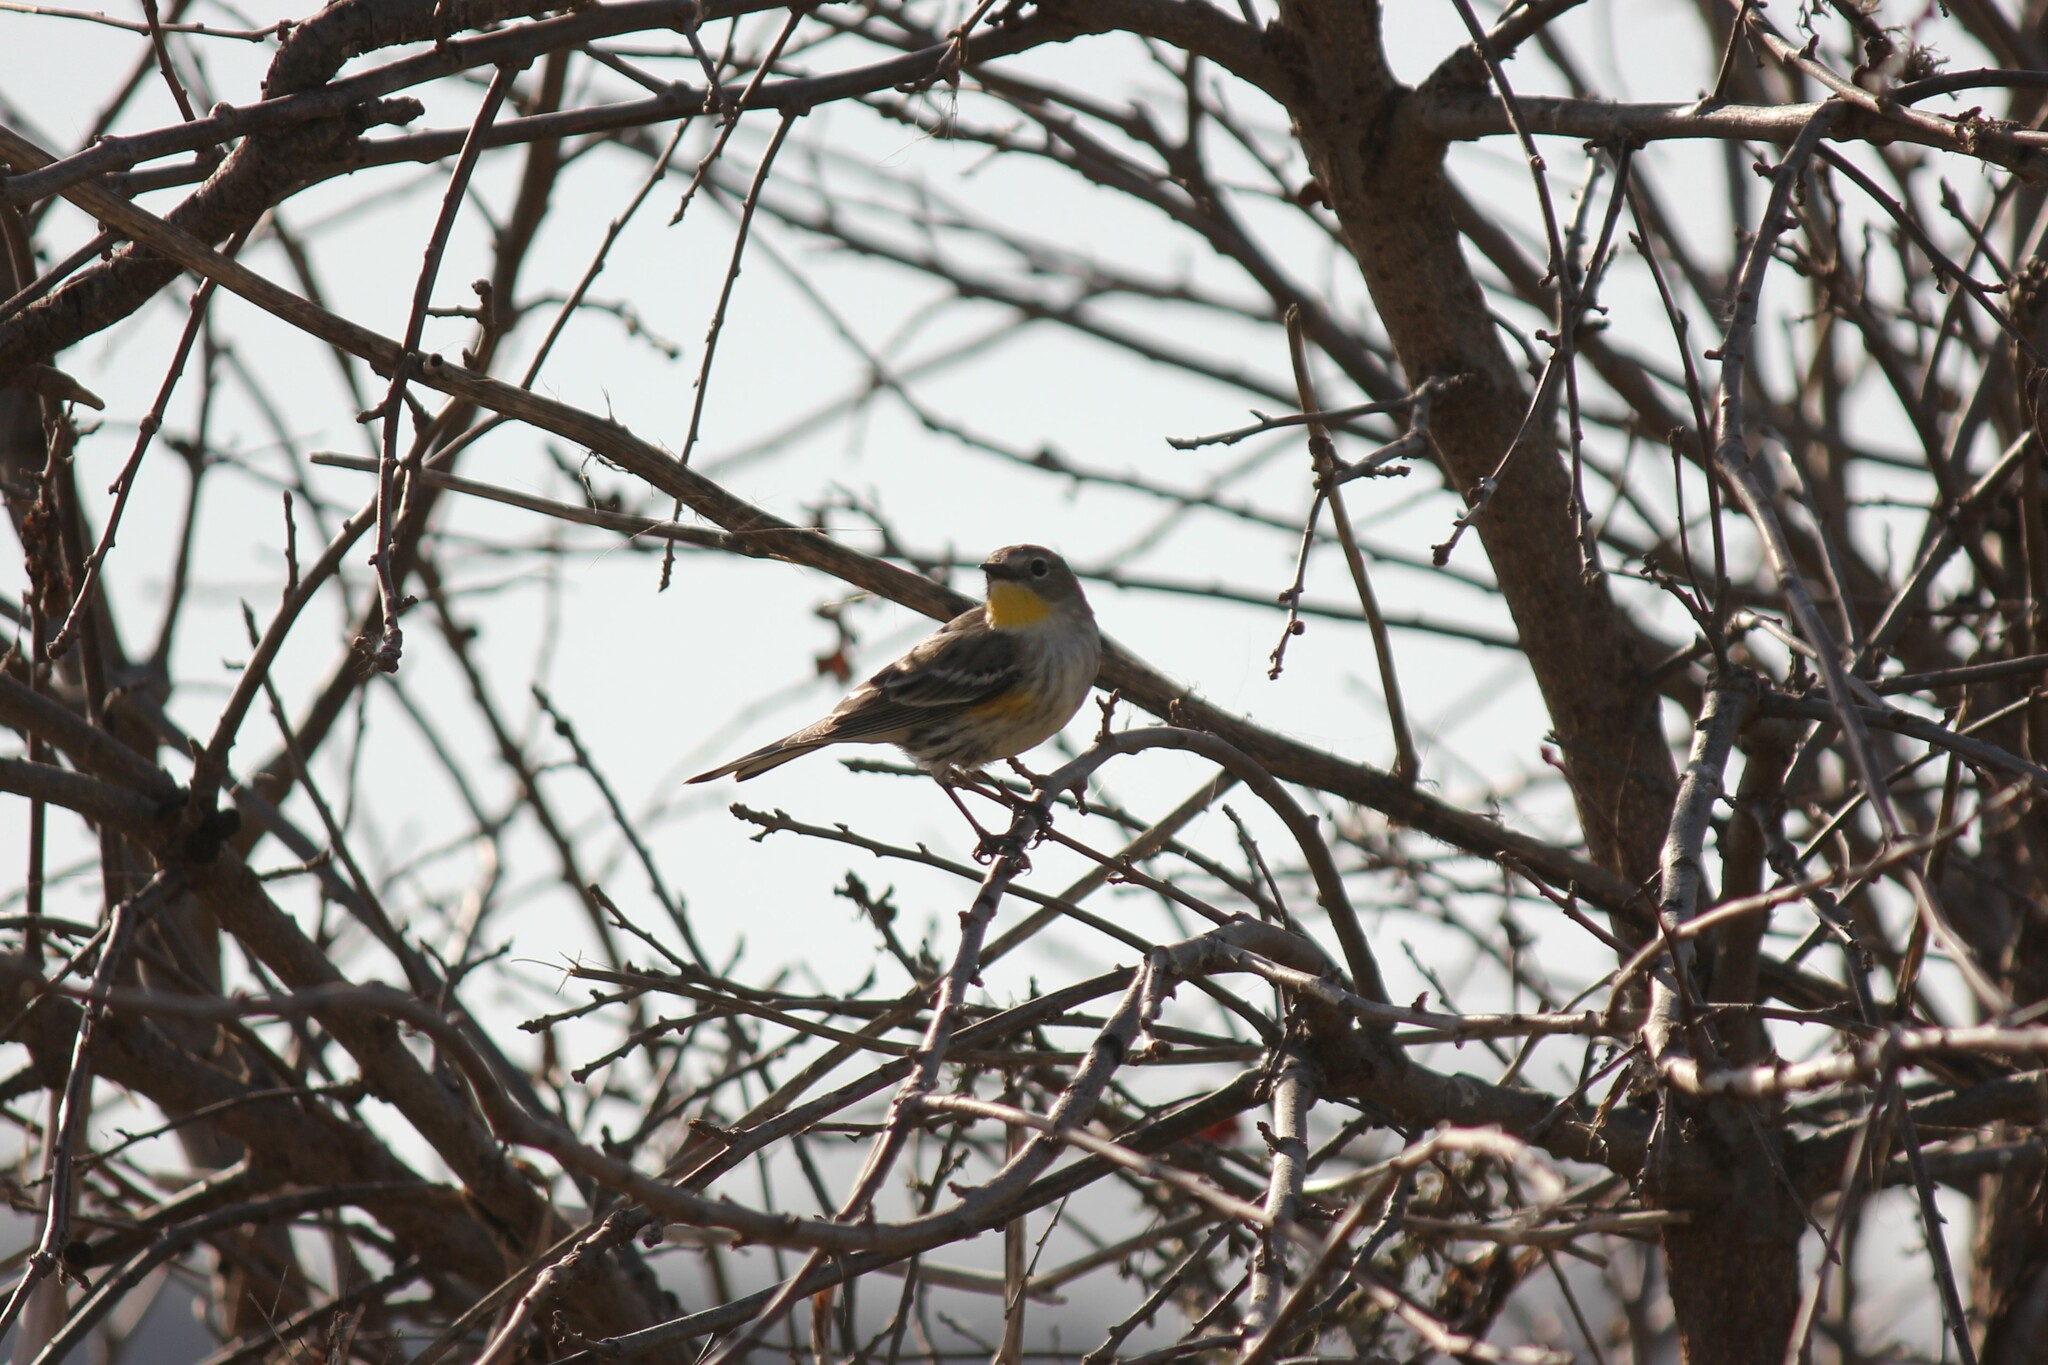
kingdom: Animalia
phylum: Chordata
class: Aves
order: Passeriformes
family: Parulidae
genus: Setophaga
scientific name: Setophaga coronata
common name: Myrtle warbler
